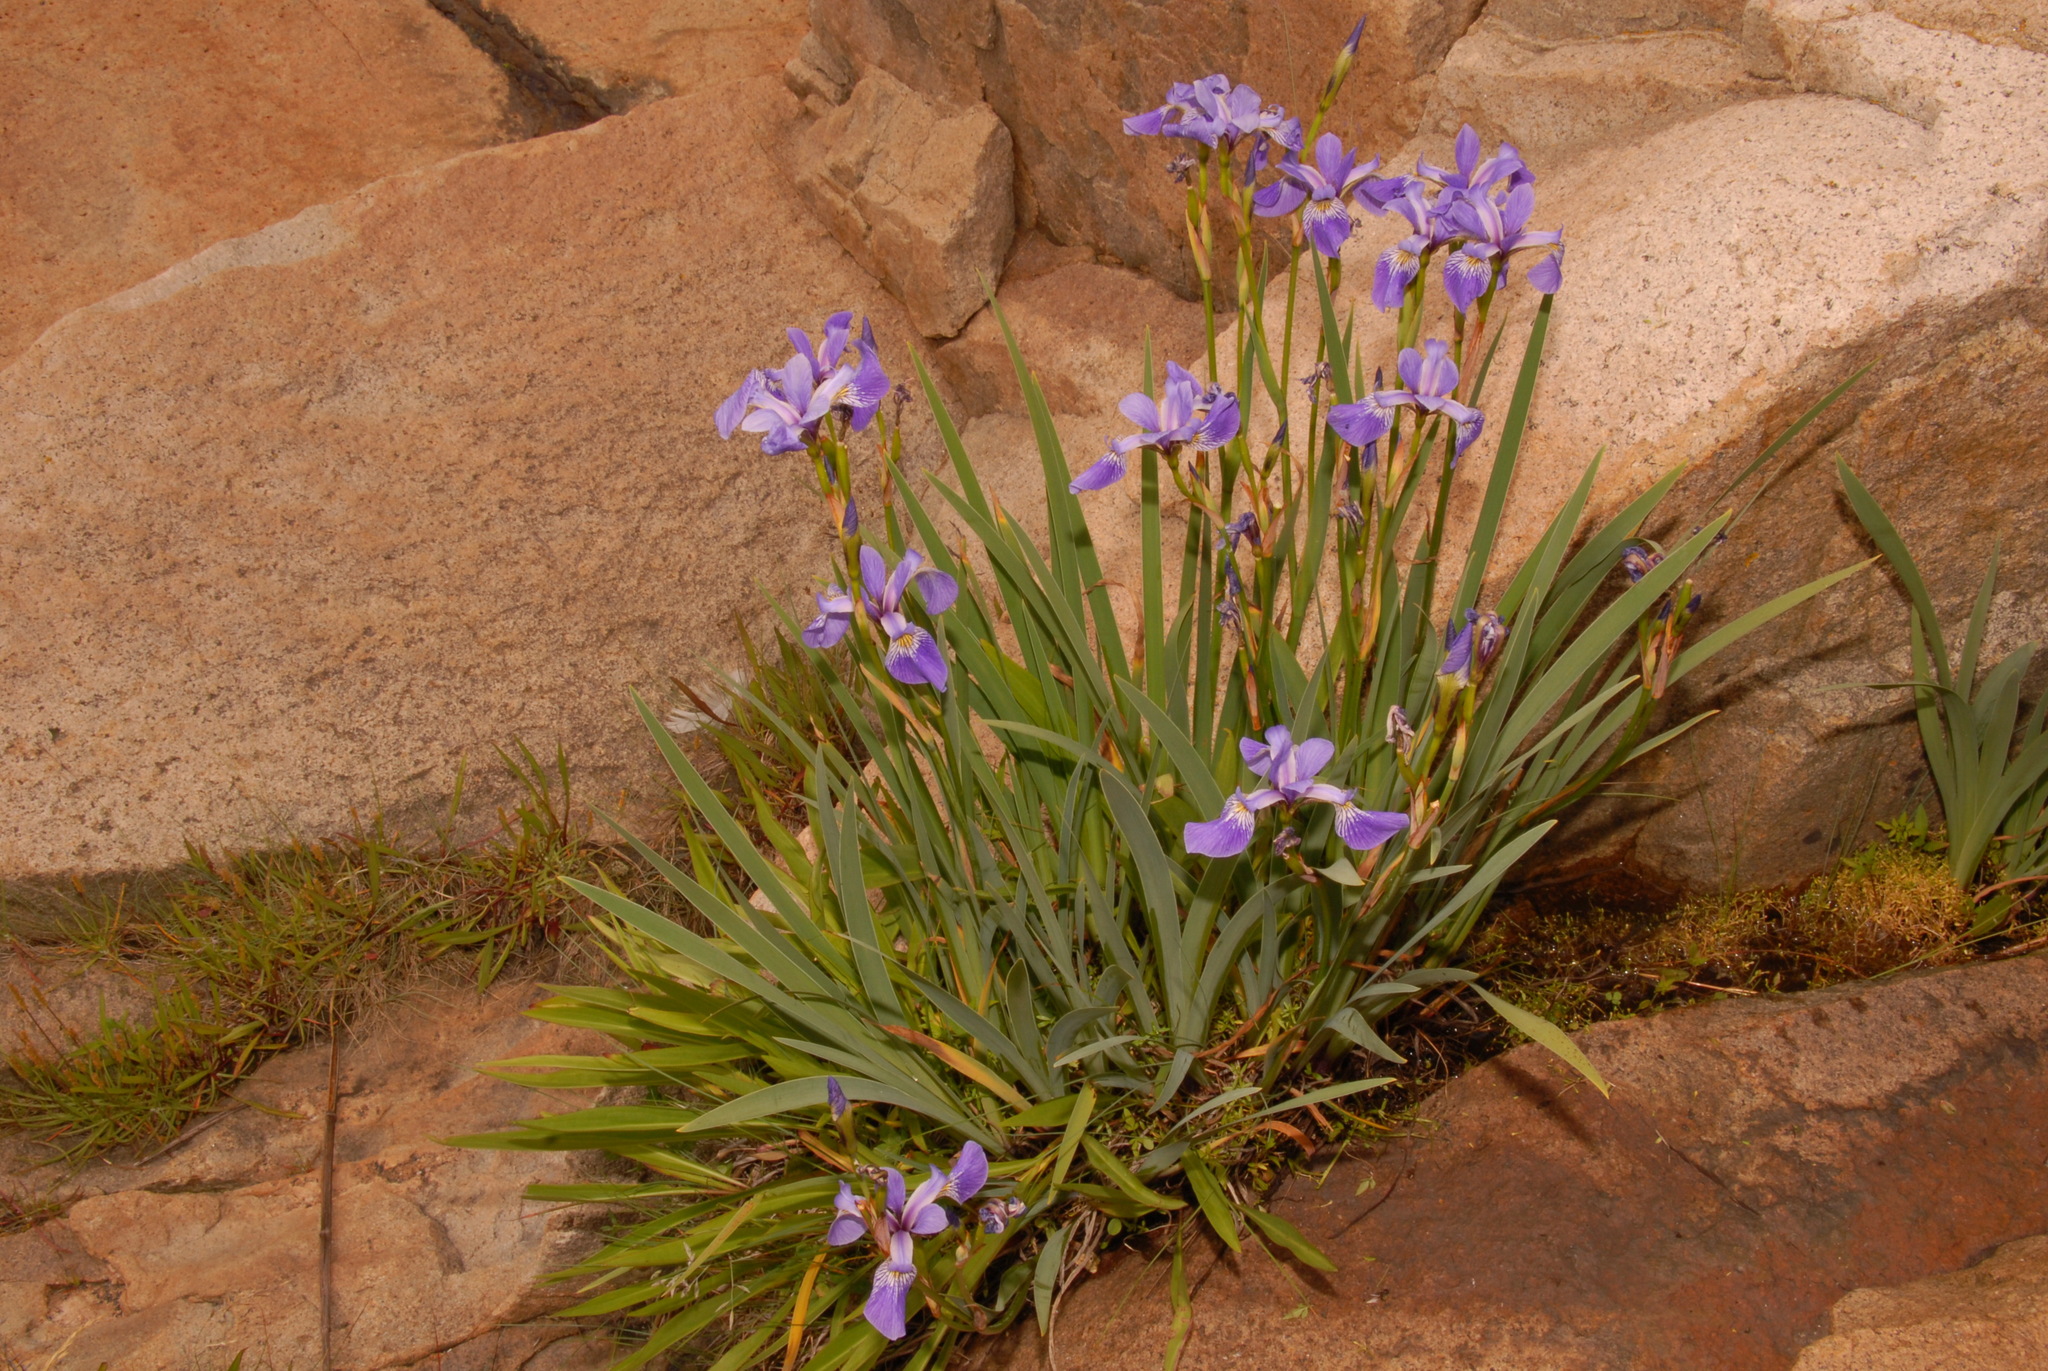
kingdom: Plantae
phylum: Tracheophyta
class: Liliopsida
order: Asparagales
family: Iridaceae
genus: Iris
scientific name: Iris versicolor
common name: Purple iris
